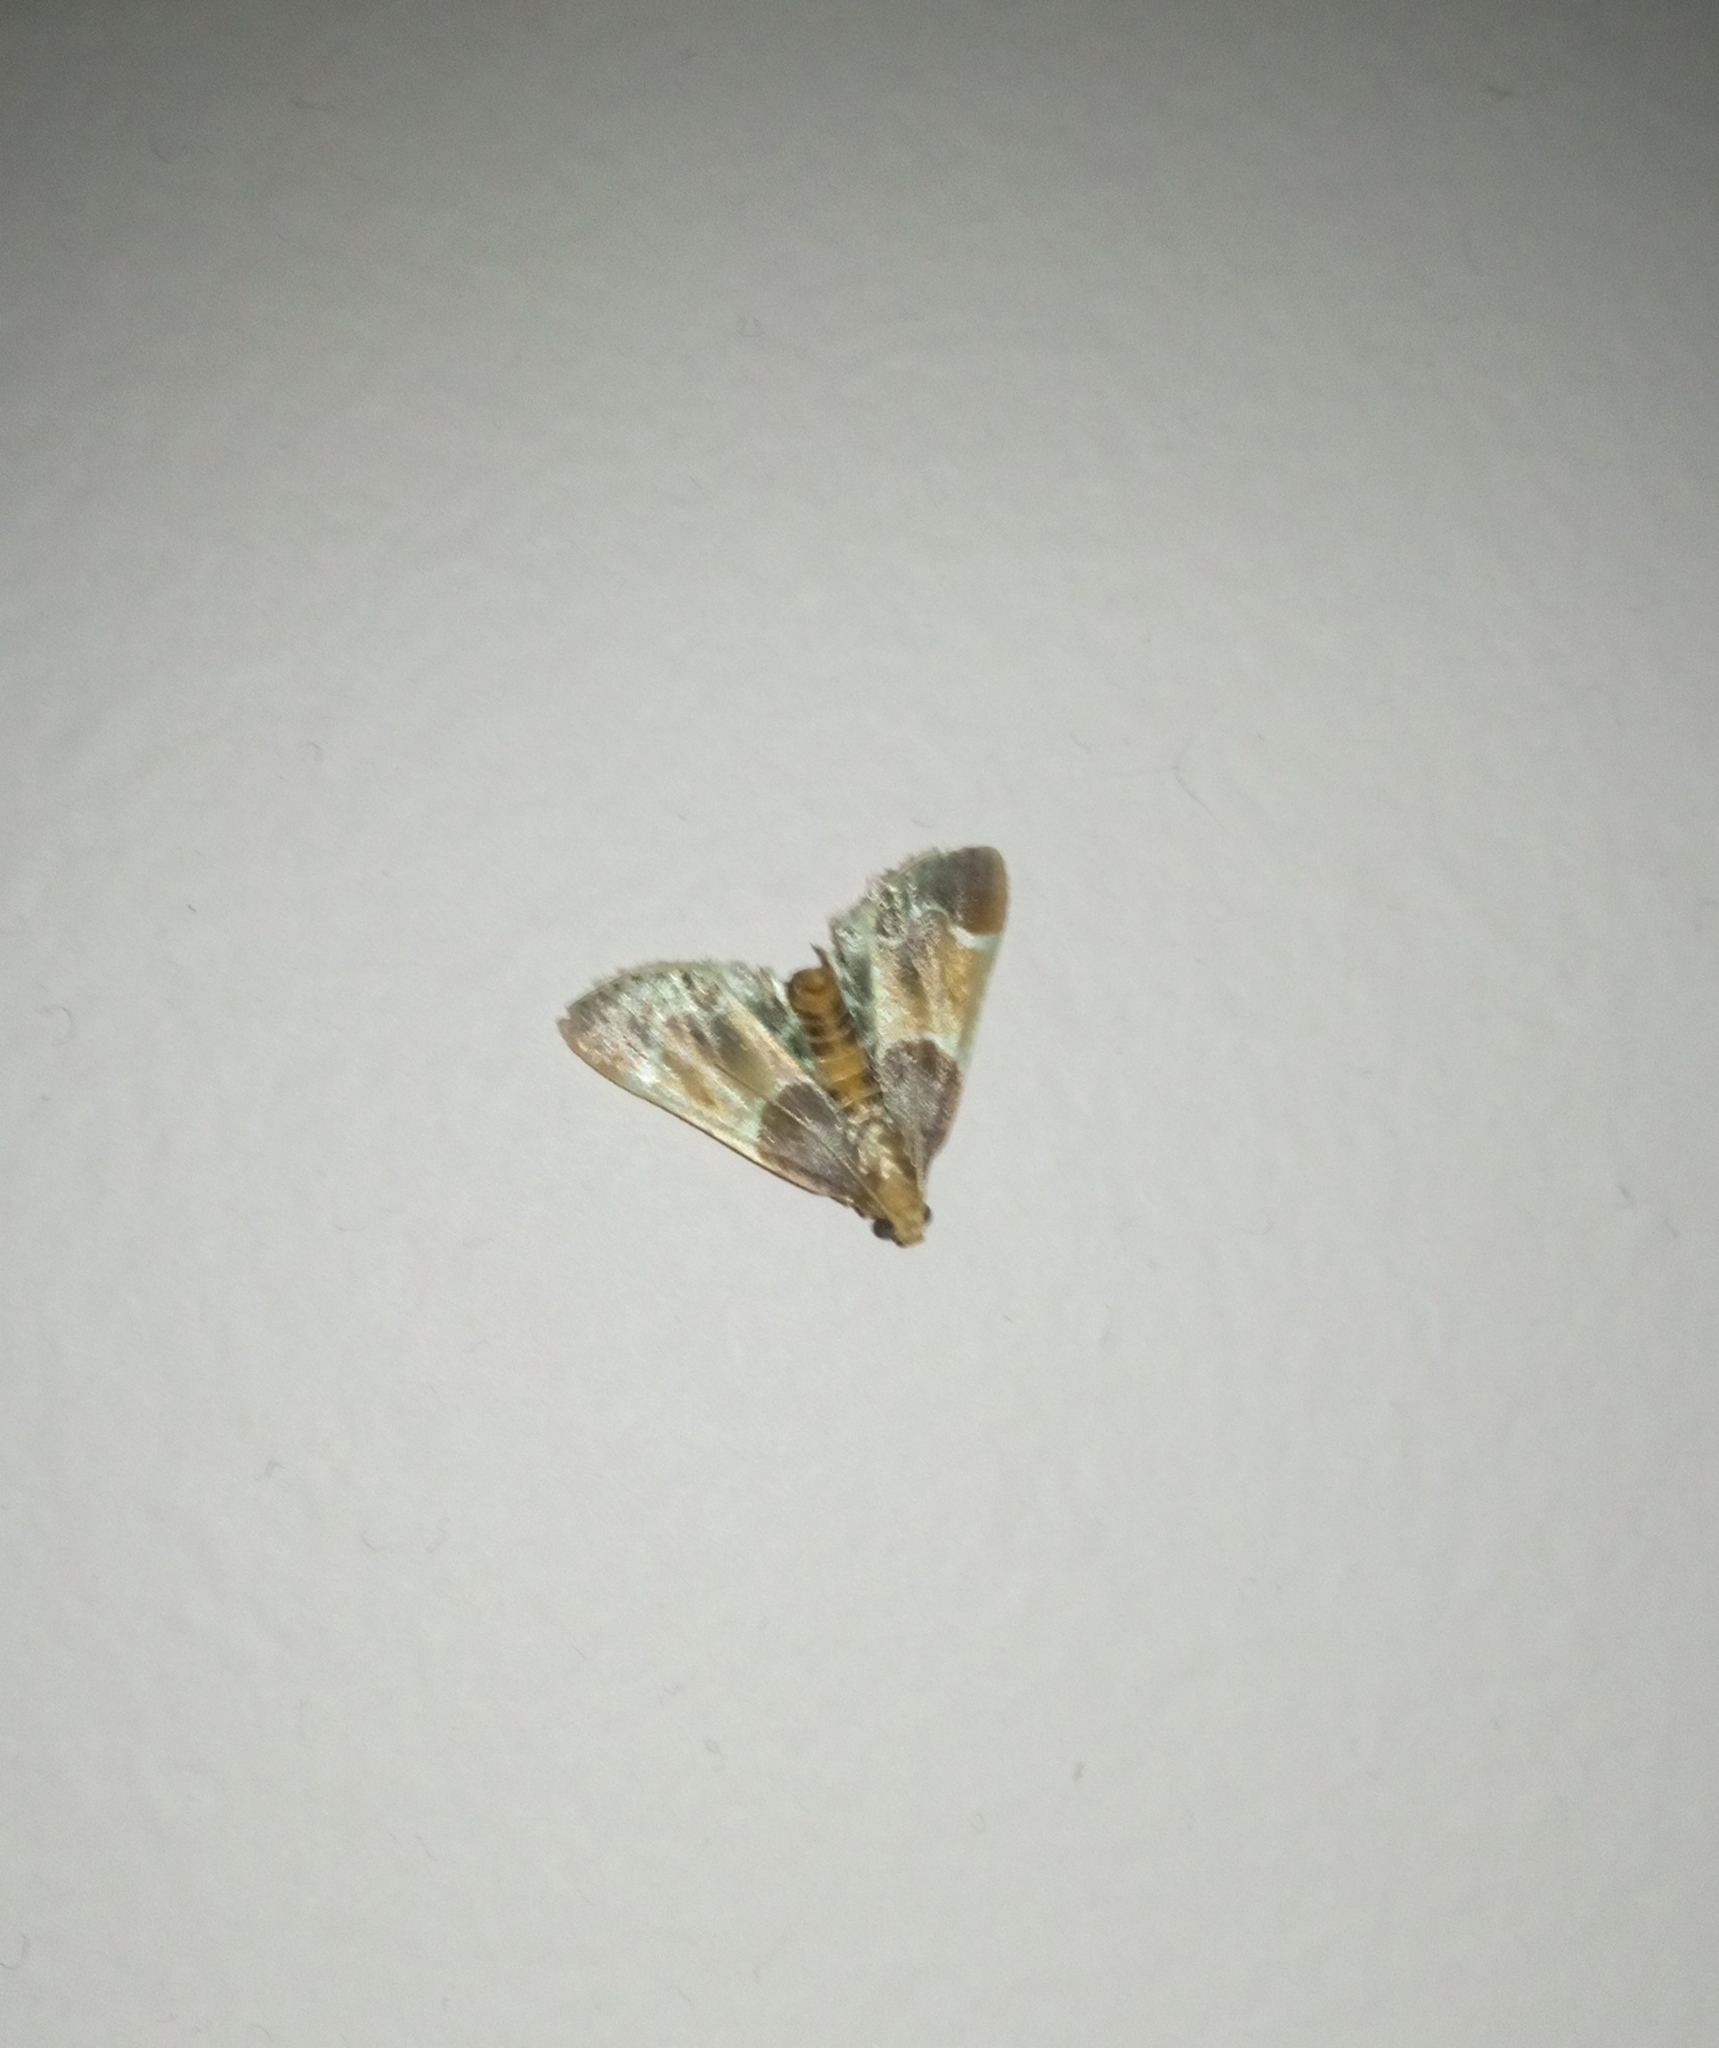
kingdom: Animalia
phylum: Arthropoda
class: Insecta
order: Lepidoptera
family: Pyralidae
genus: Pyralis
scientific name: Pyralis farinalis
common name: Meal moth
